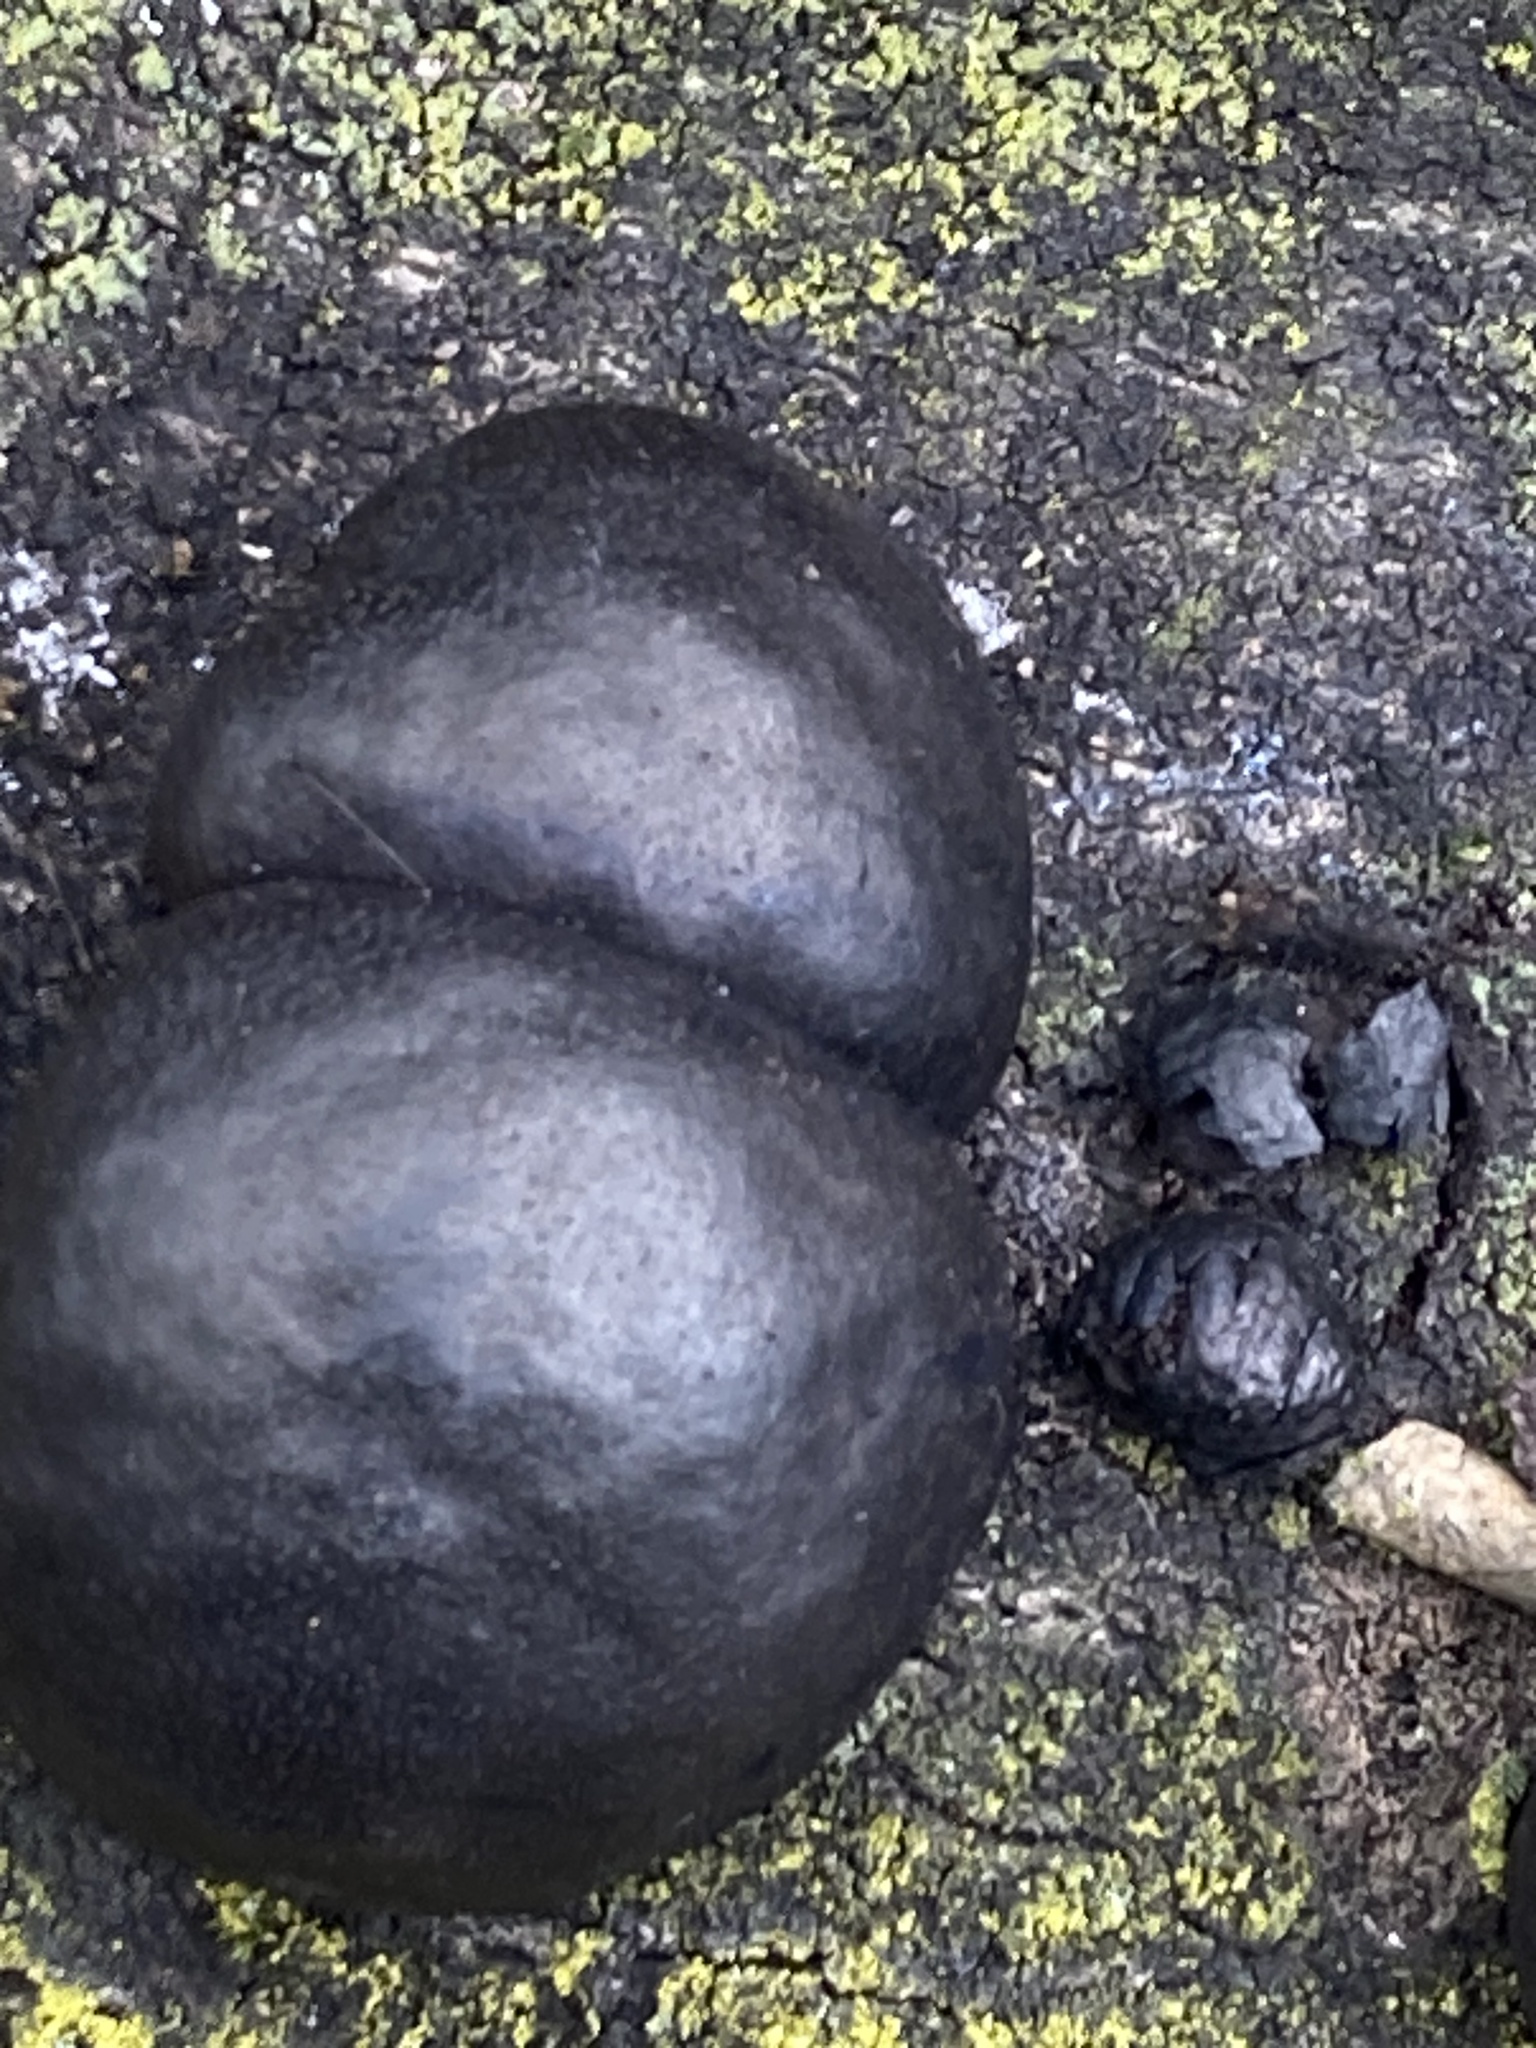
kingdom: Fungi
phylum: Ascomycota
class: Sordariomycetes
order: Xylariales
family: Hypoxylaceae
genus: Daldinia
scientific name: Daldinia concentrica
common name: Cramp balls
